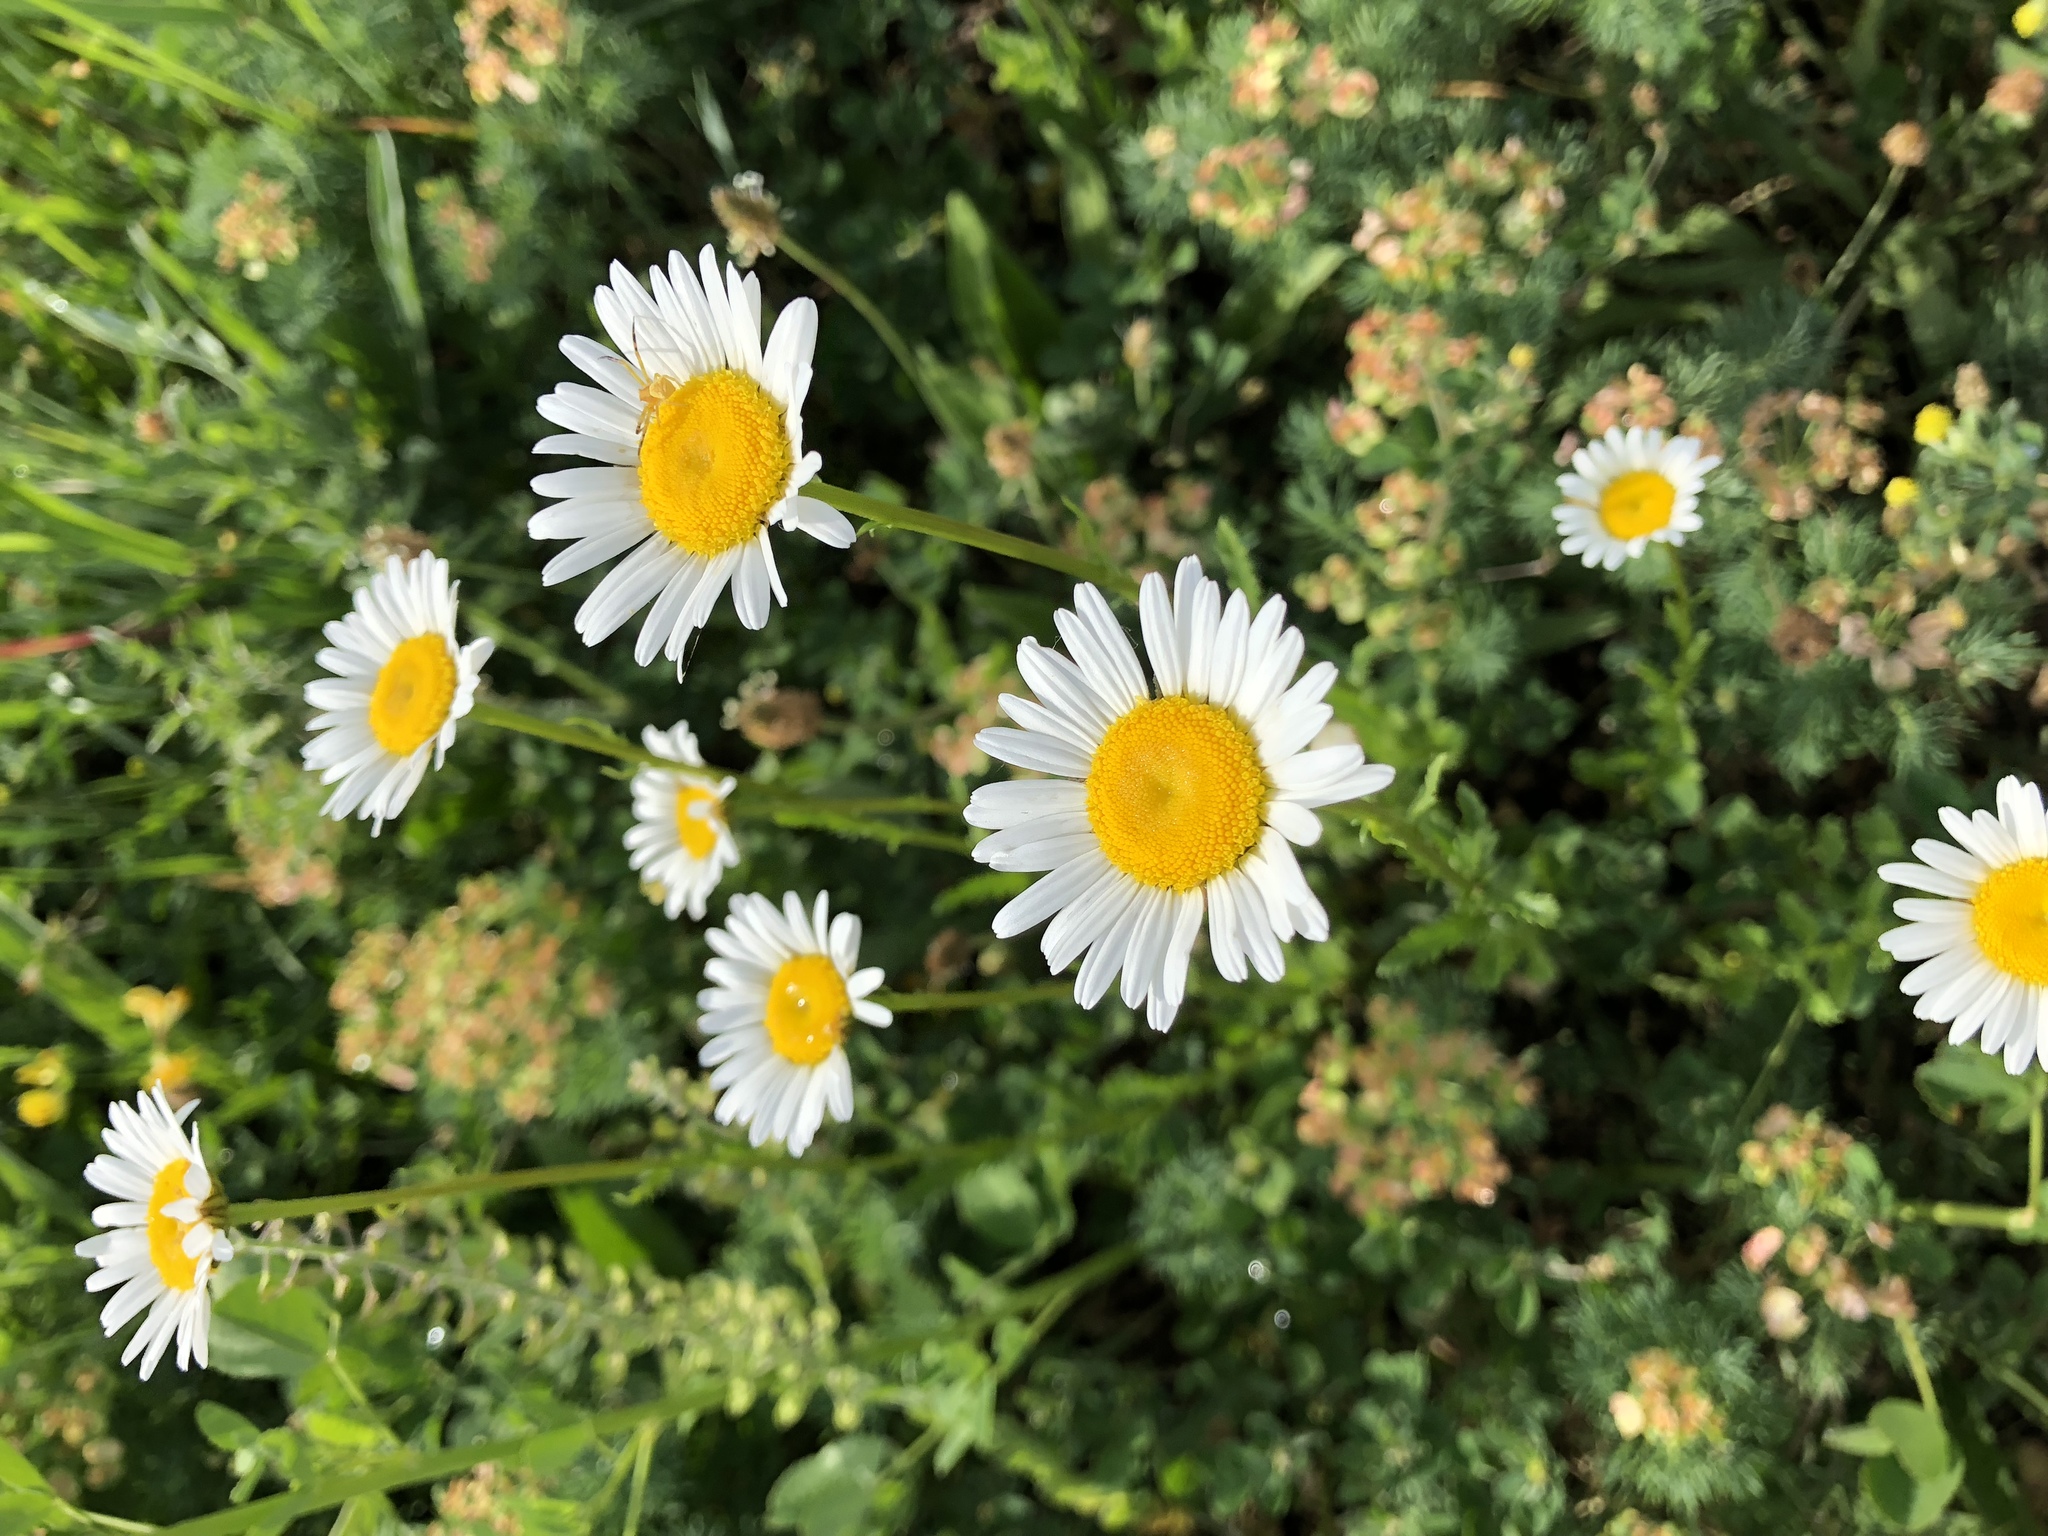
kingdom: Plantae
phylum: Tracheophyta
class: Magnoliopsida
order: Asterales
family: Asteraceae
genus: Leucanthemum
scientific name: Leucanthemum vulgare
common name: Oxeye daisy
